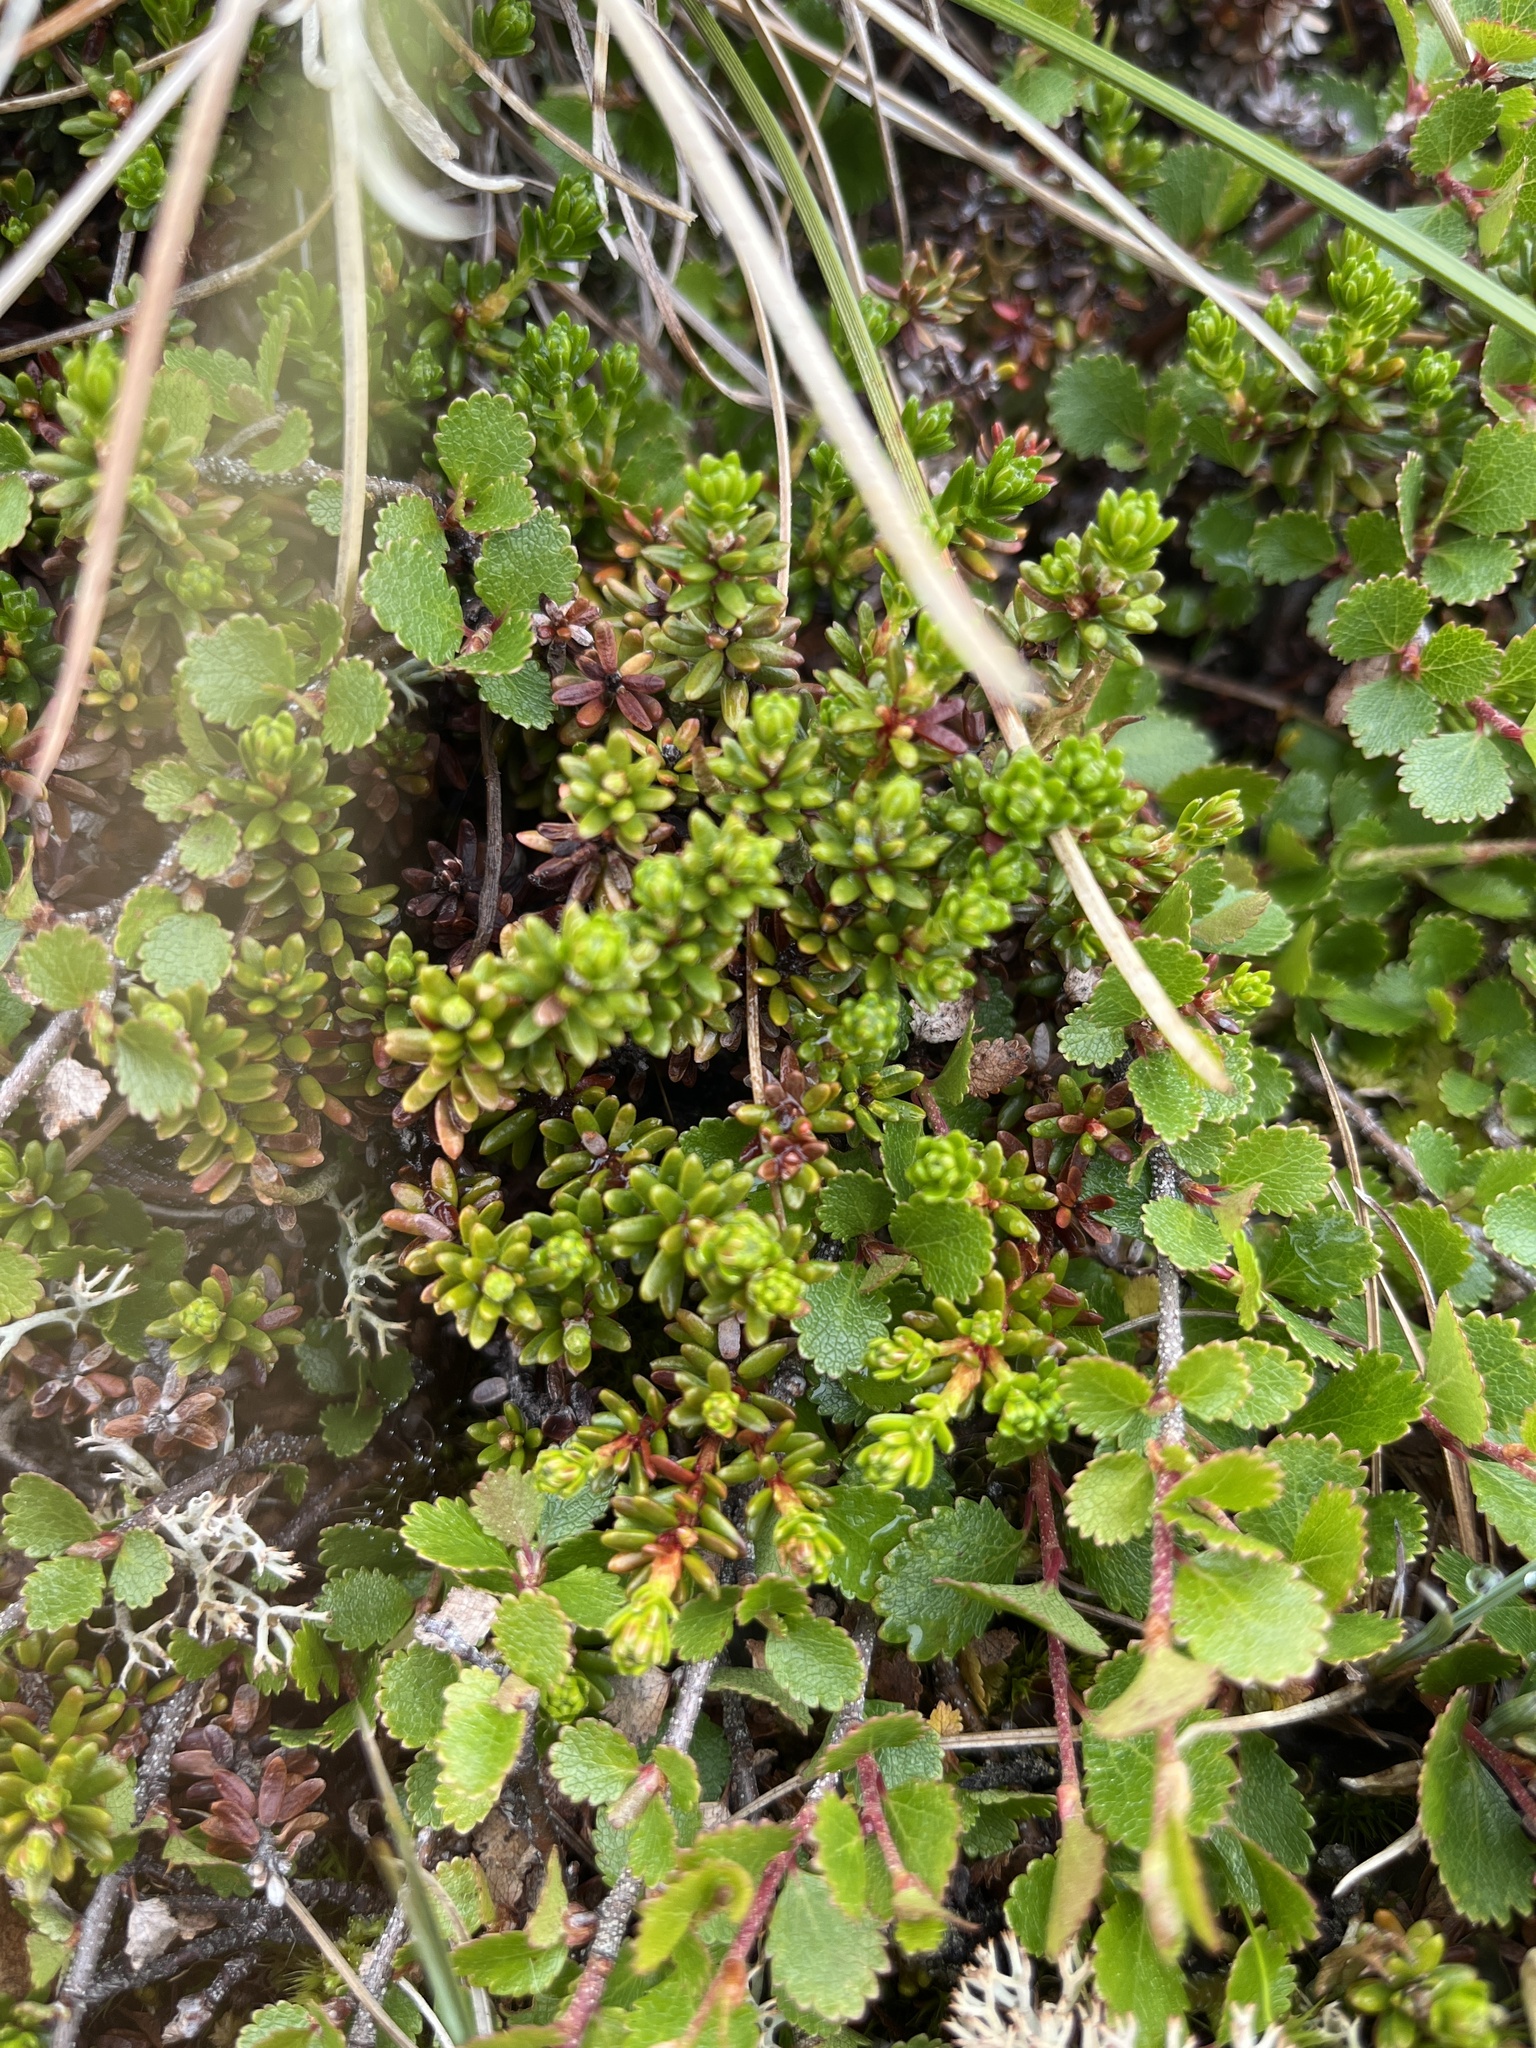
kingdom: Plantae
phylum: Tracheophyta
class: Magnoliopsida
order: Ericales
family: Ericaceae
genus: Empetrum
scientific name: Empetrum hermaphroditum
